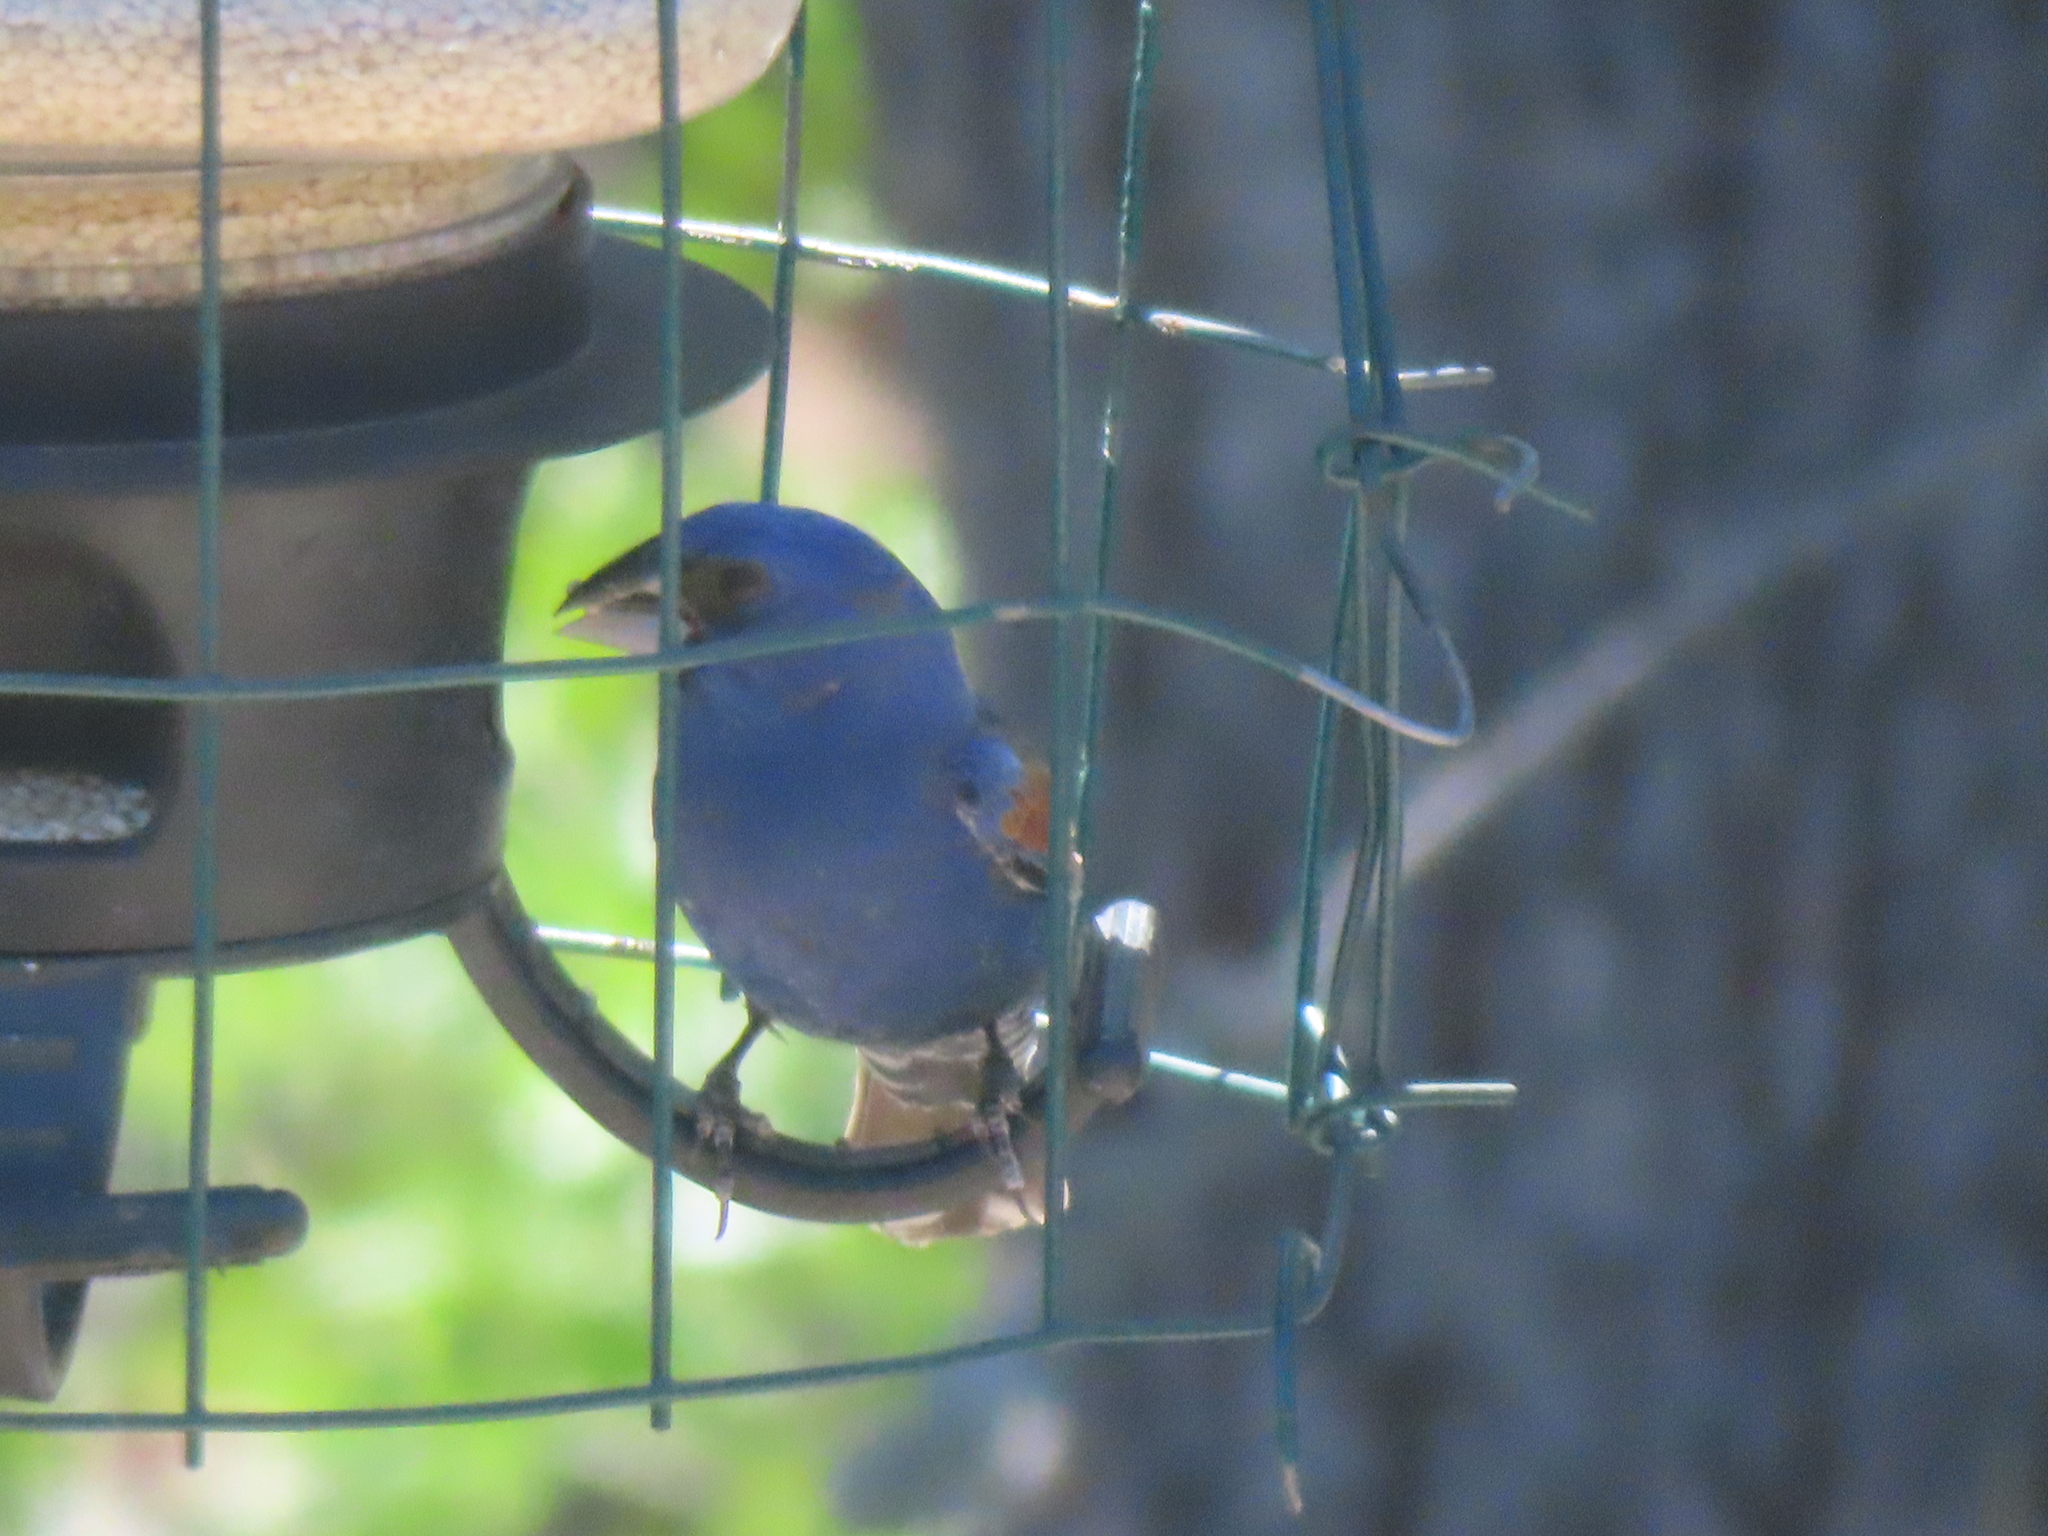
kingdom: Animalia
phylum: Chordata
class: Aves
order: Passeriformes
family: Cardinalidae
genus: Passerina
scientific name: Passerina caerulea
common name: Blue grosbeak
